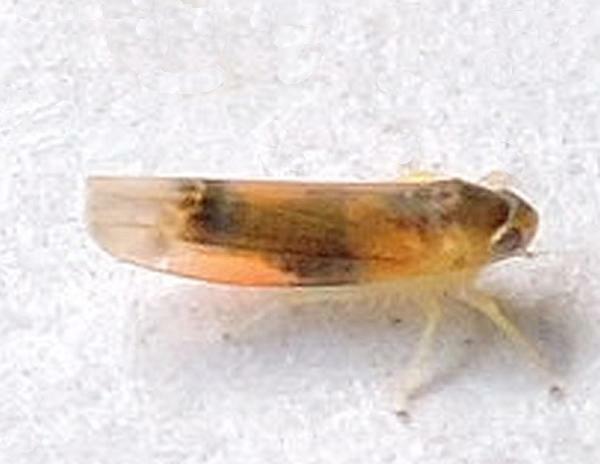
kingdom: Animalia
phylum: Arthropoda
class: Insecta
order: Hemiptera
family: Cicadellidae
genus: Empoa
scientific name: Empoa vestita
